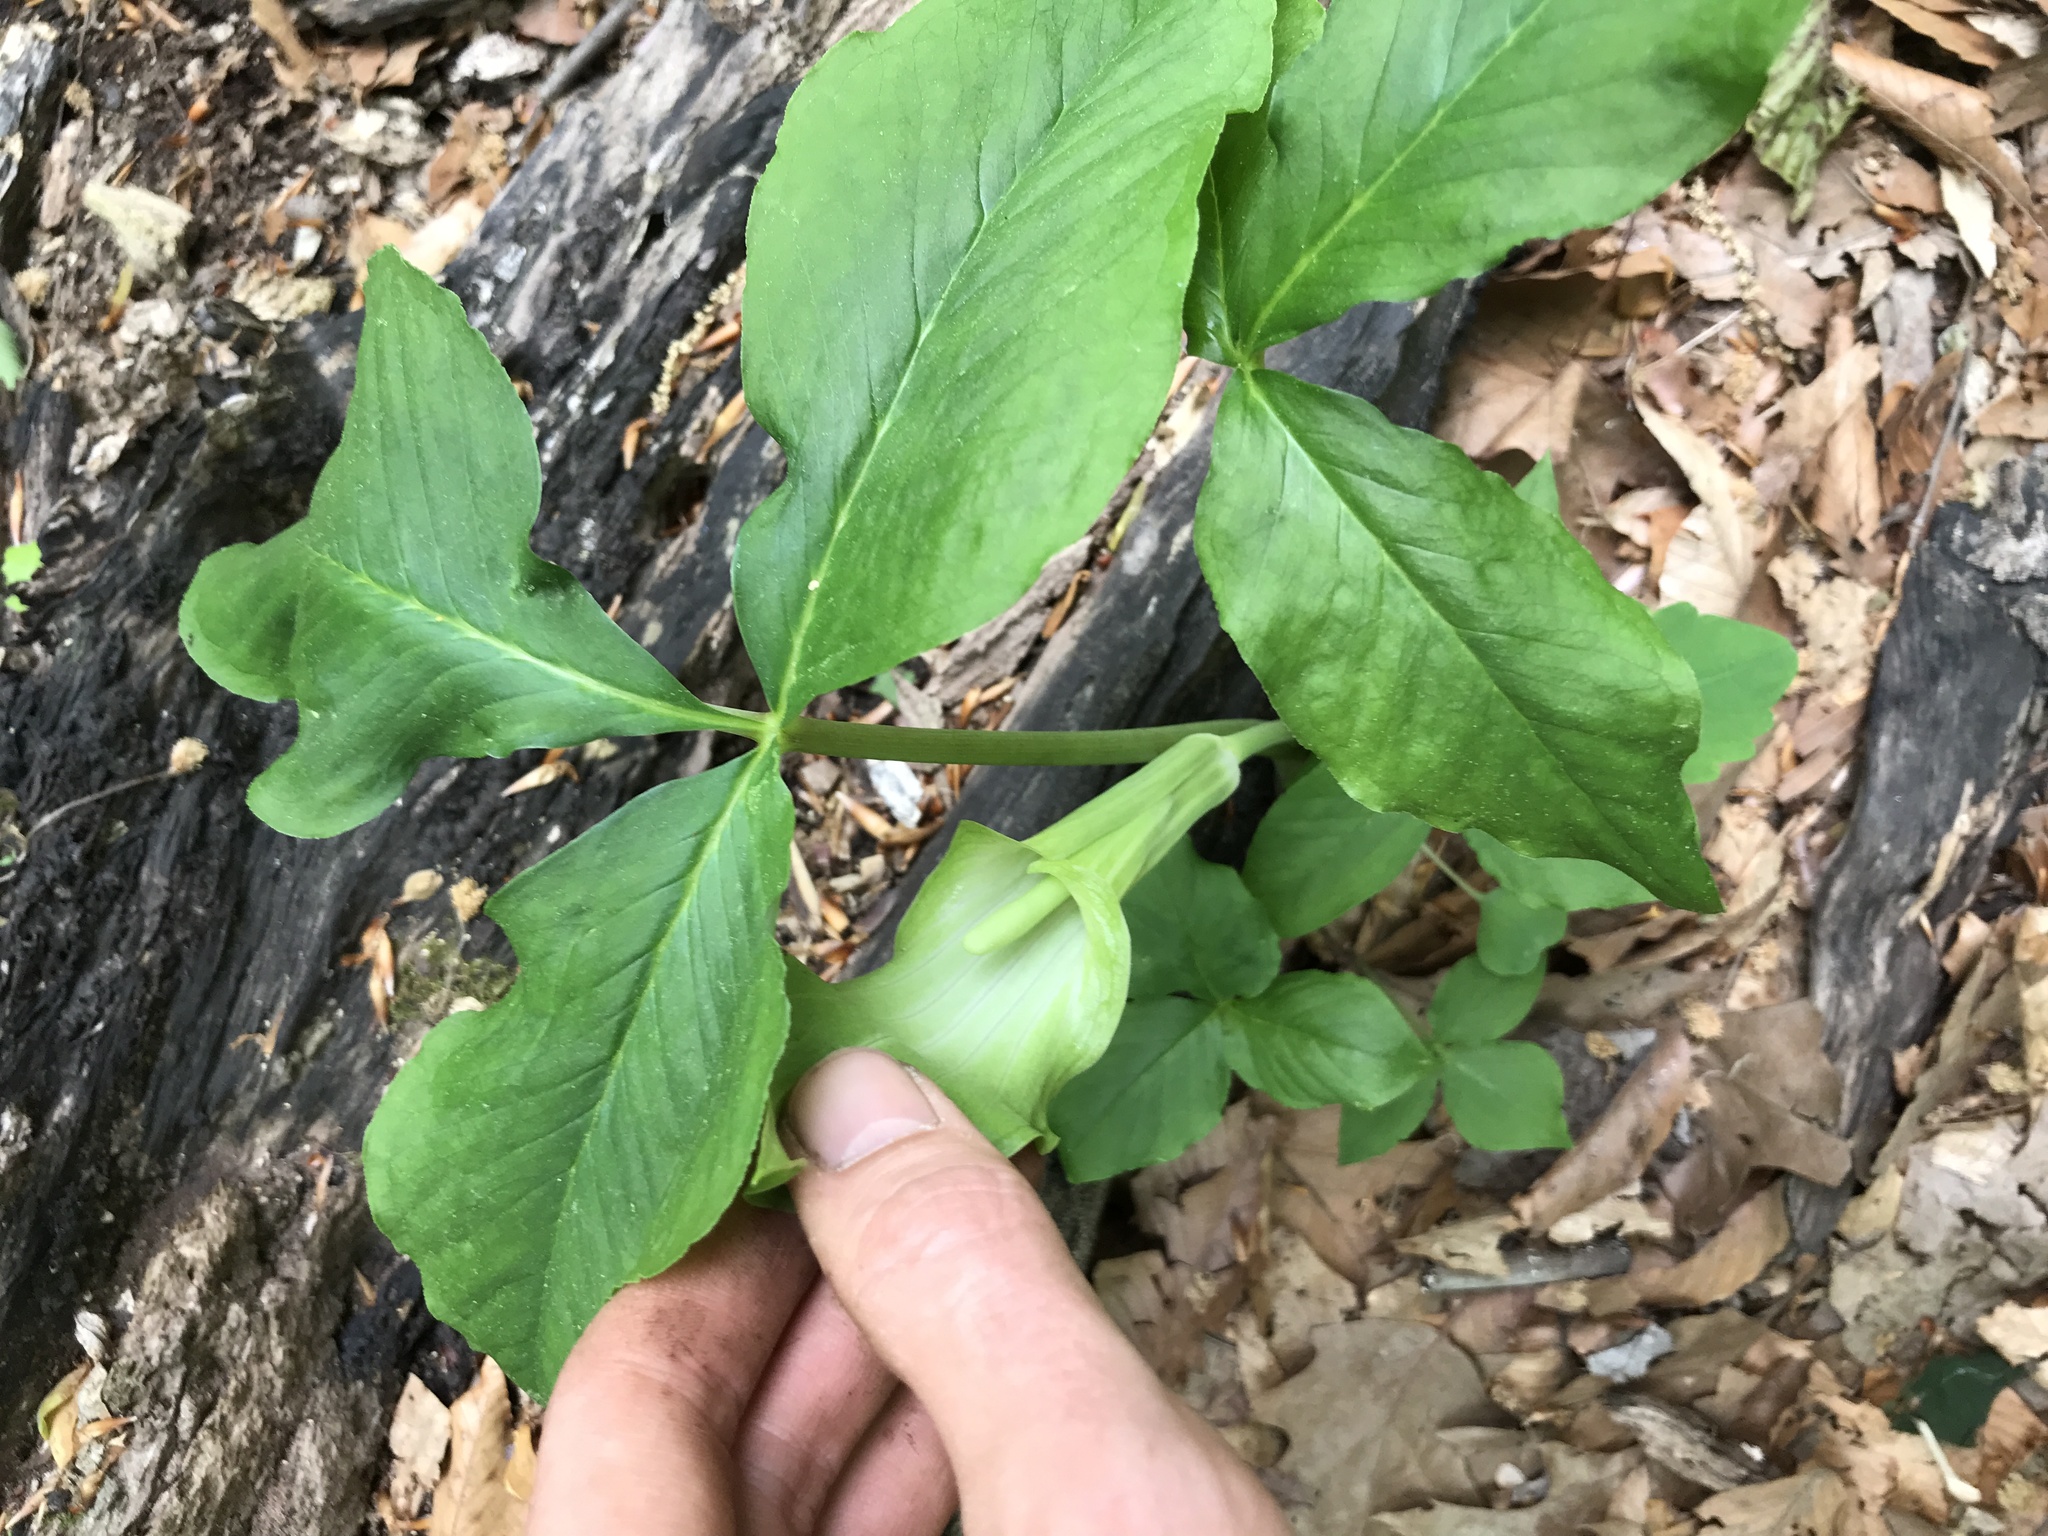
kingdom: Plantae
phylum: Tracheophyta
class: Liliopsida
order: Alismatales
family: Araceae
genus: Arisaema
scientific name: Arisaema triphyllum
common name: Jack-in-the-pulpit
